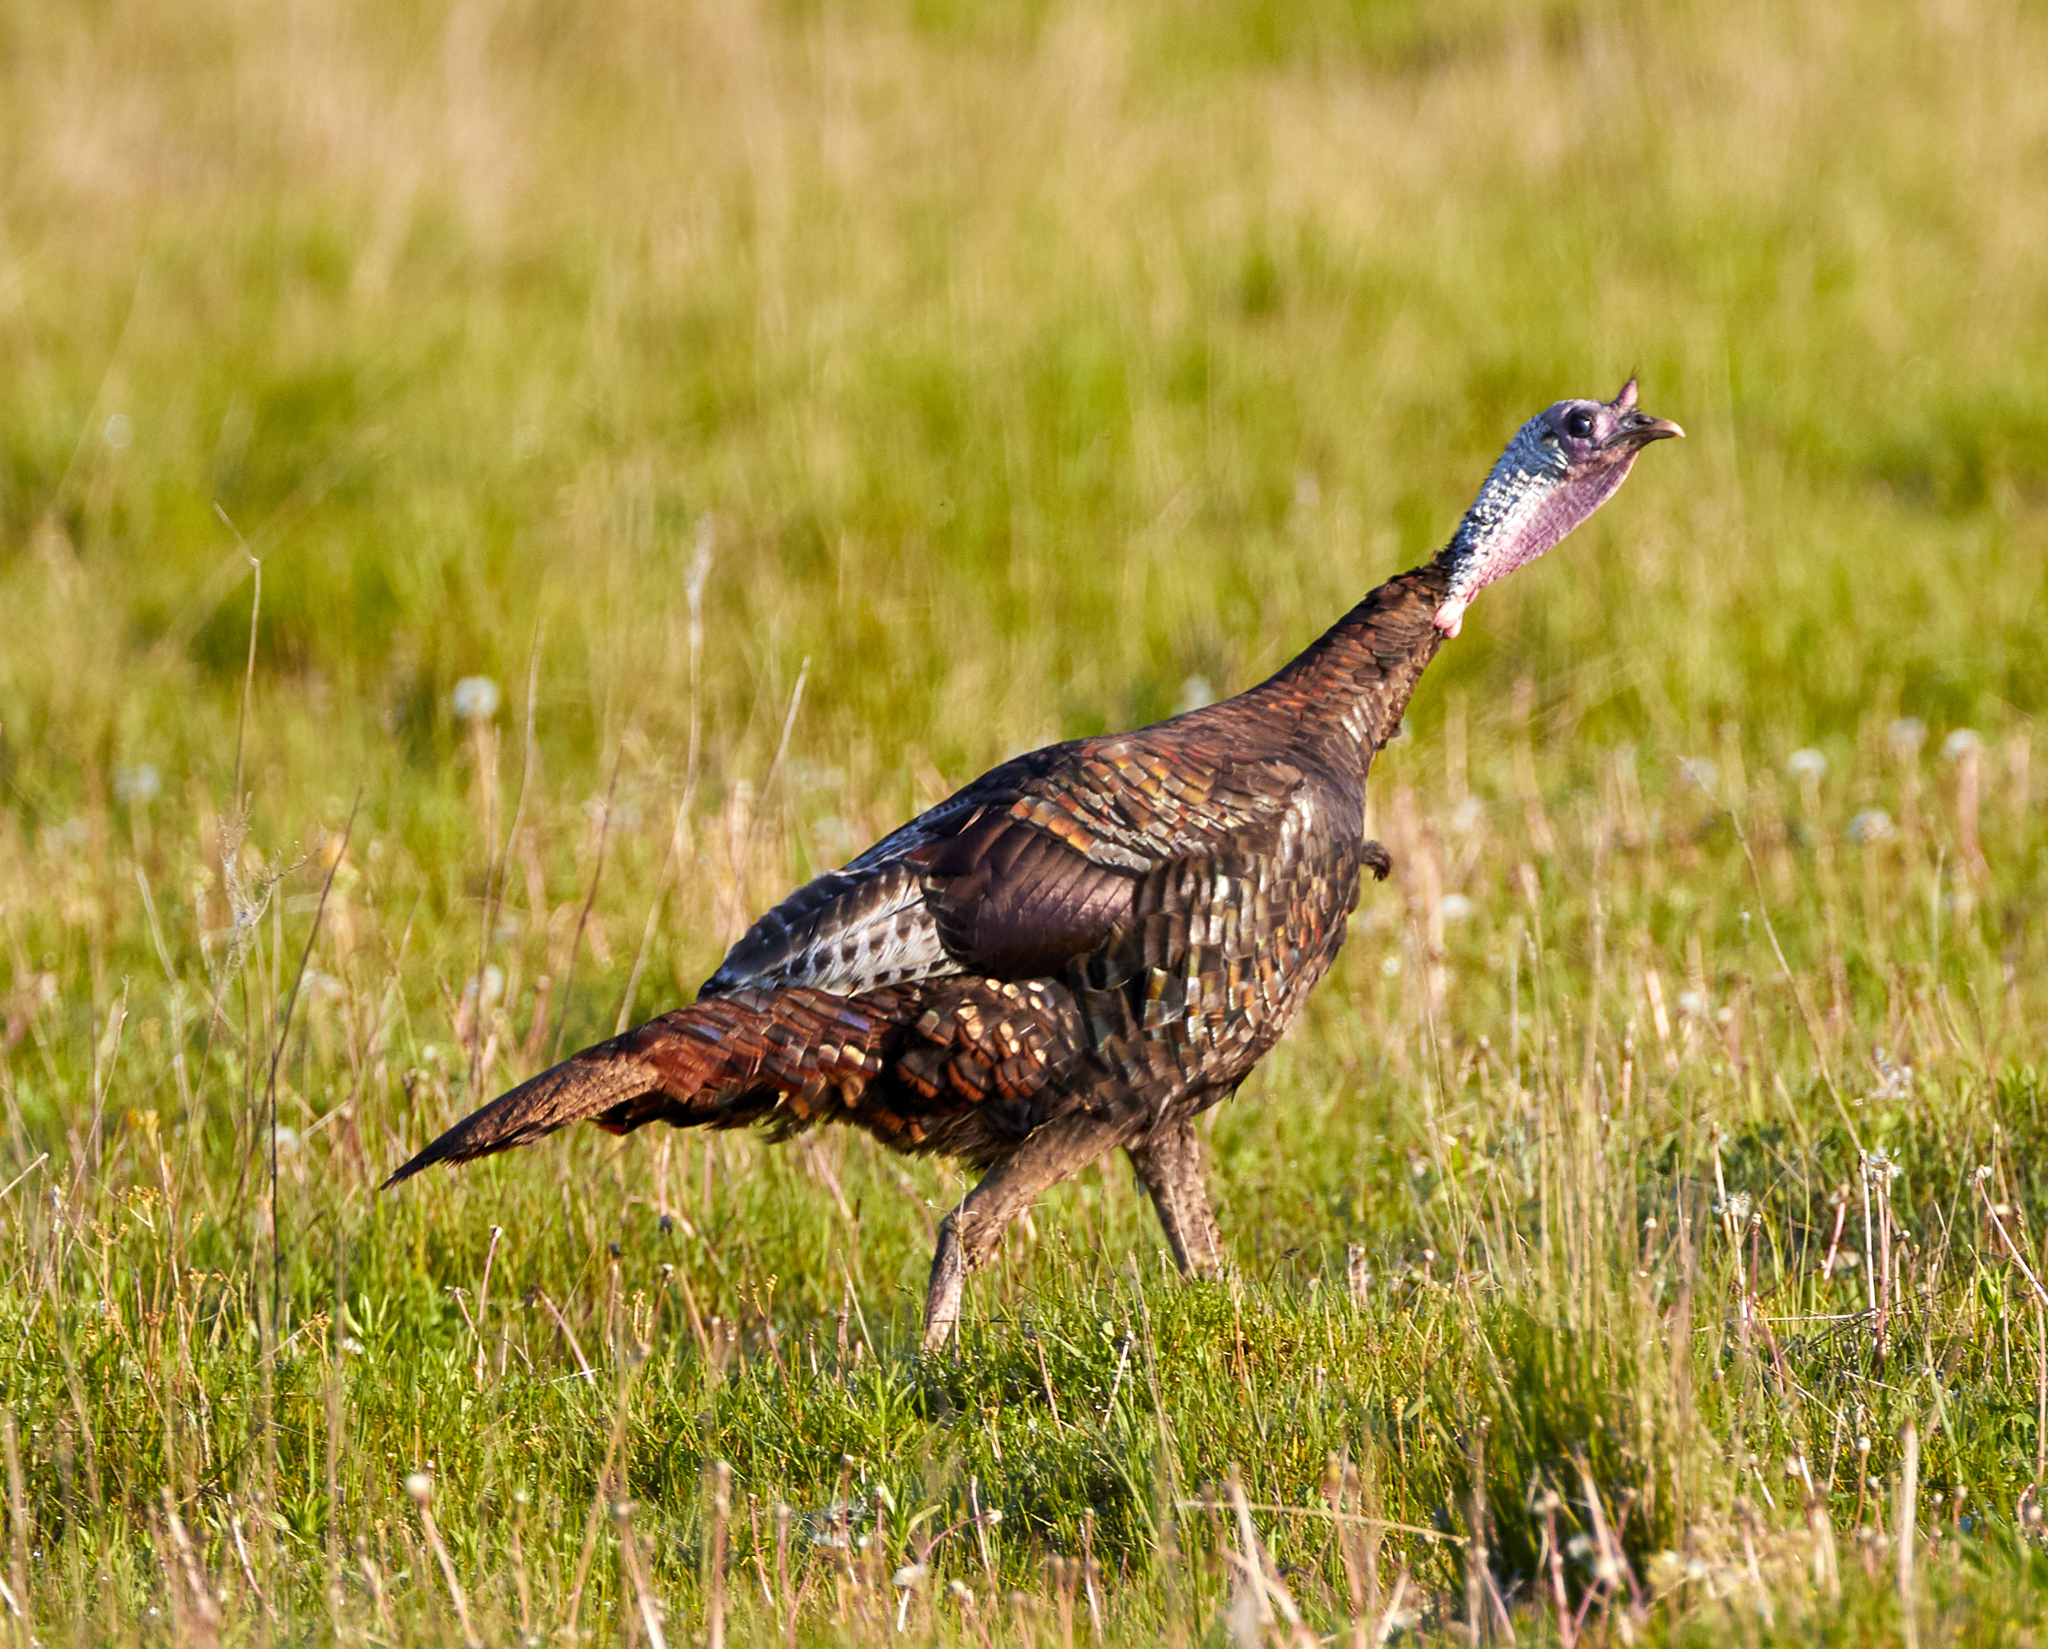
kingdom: Animalia
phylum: Chordata
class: Aves
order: Galliformes
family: Phasianidae
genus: Meleagris
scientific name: Meleagris gallopavo
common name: Wild turkey
